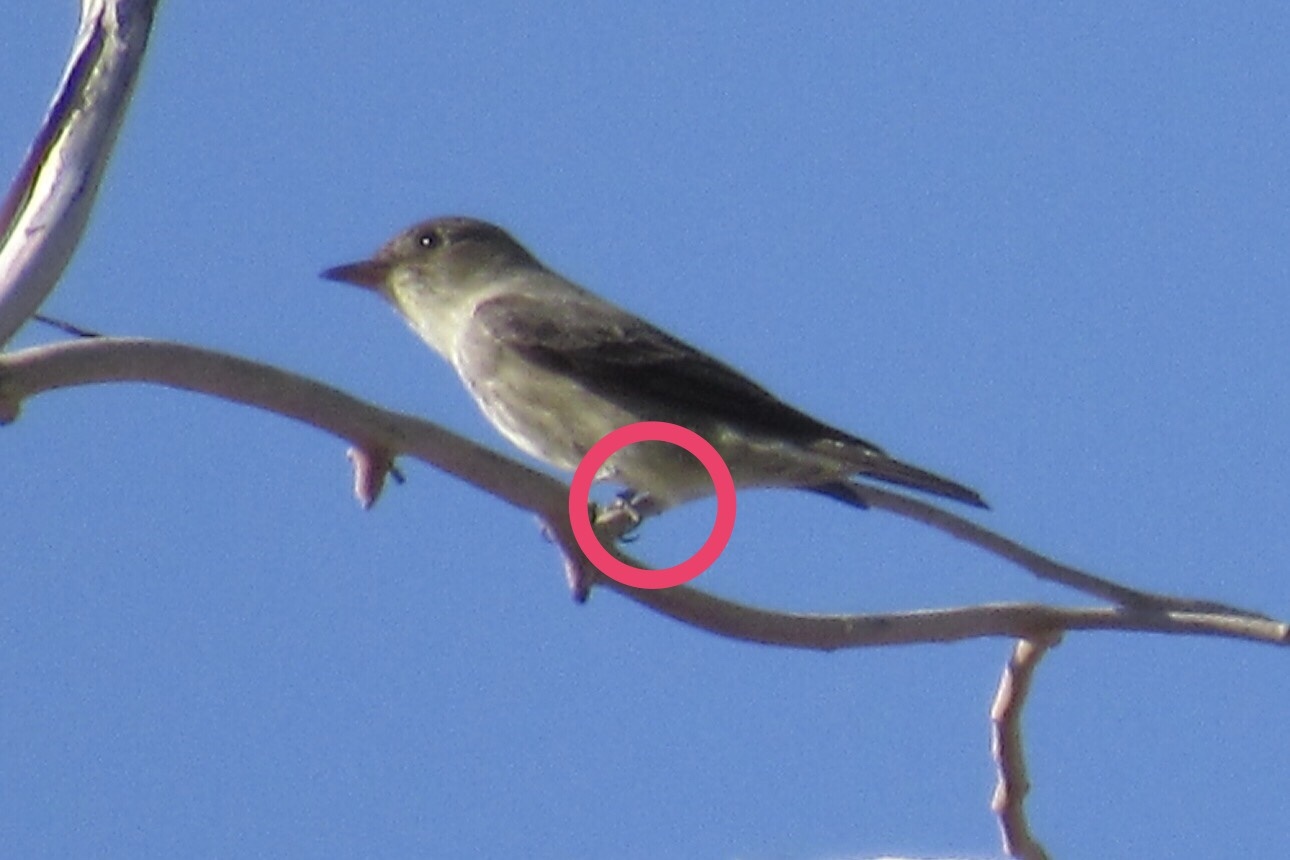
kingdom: Animalia
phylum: Chordata
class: Aves
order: Passeriformes
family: Tyrannidae
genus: Contopus
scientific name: Contopus cooperi
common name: Olive-sided flycatcher
